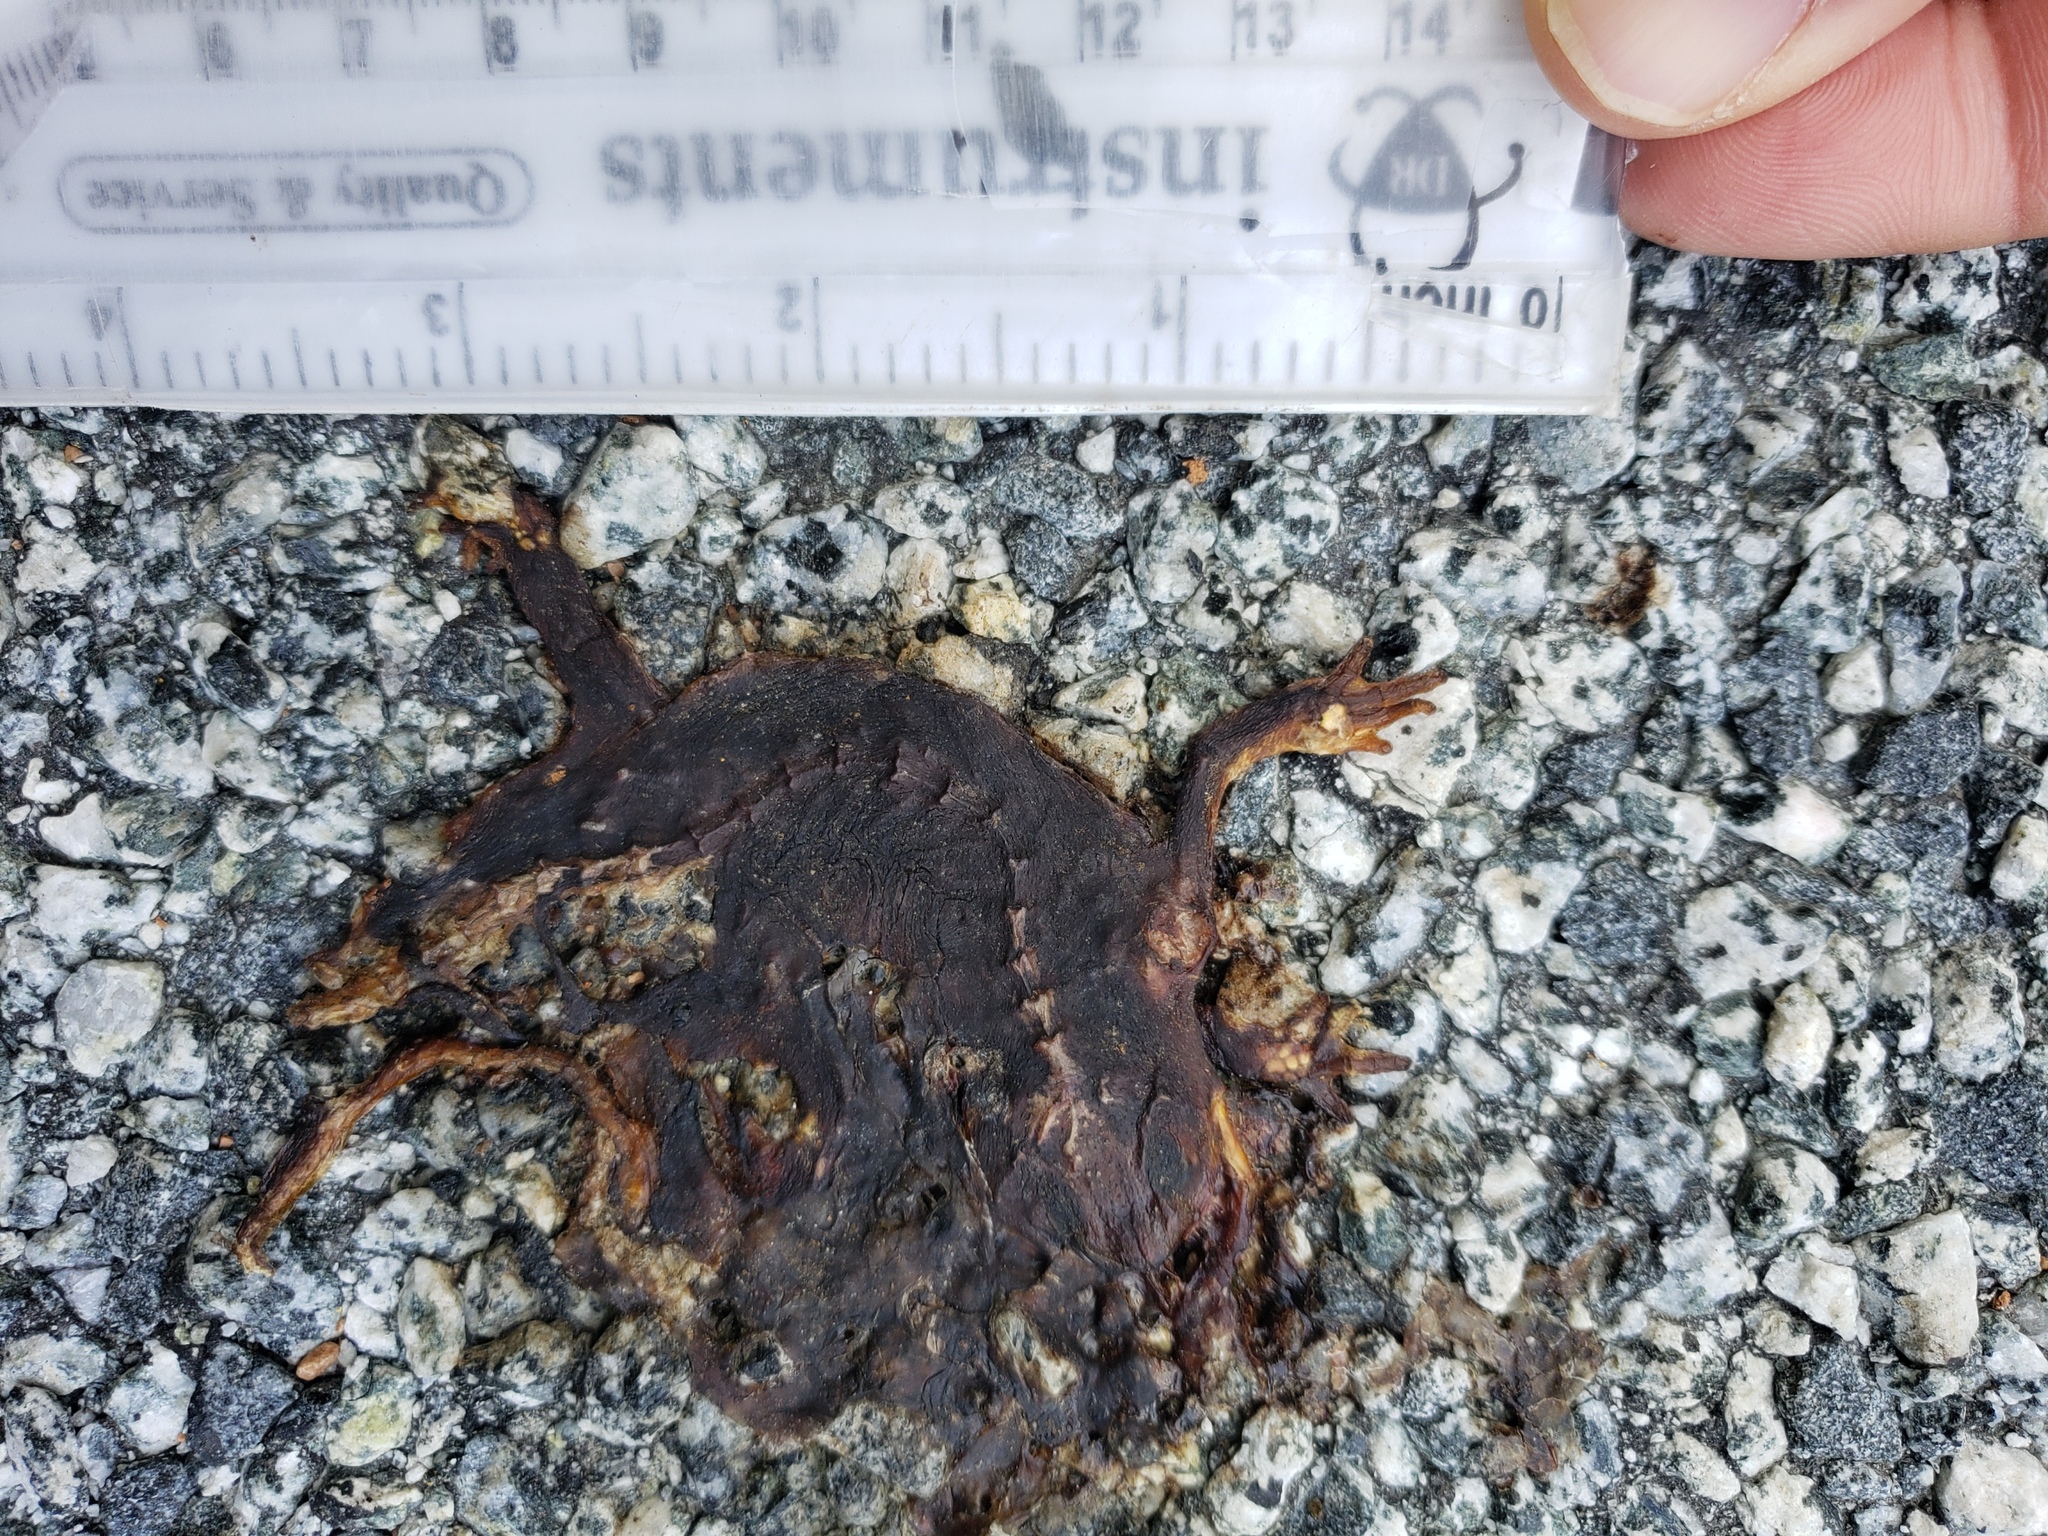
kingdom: Animalia
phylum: Chordata
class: Amphibia
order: Caudata
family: Salamandridae
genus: Taricha
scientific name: Taricha
